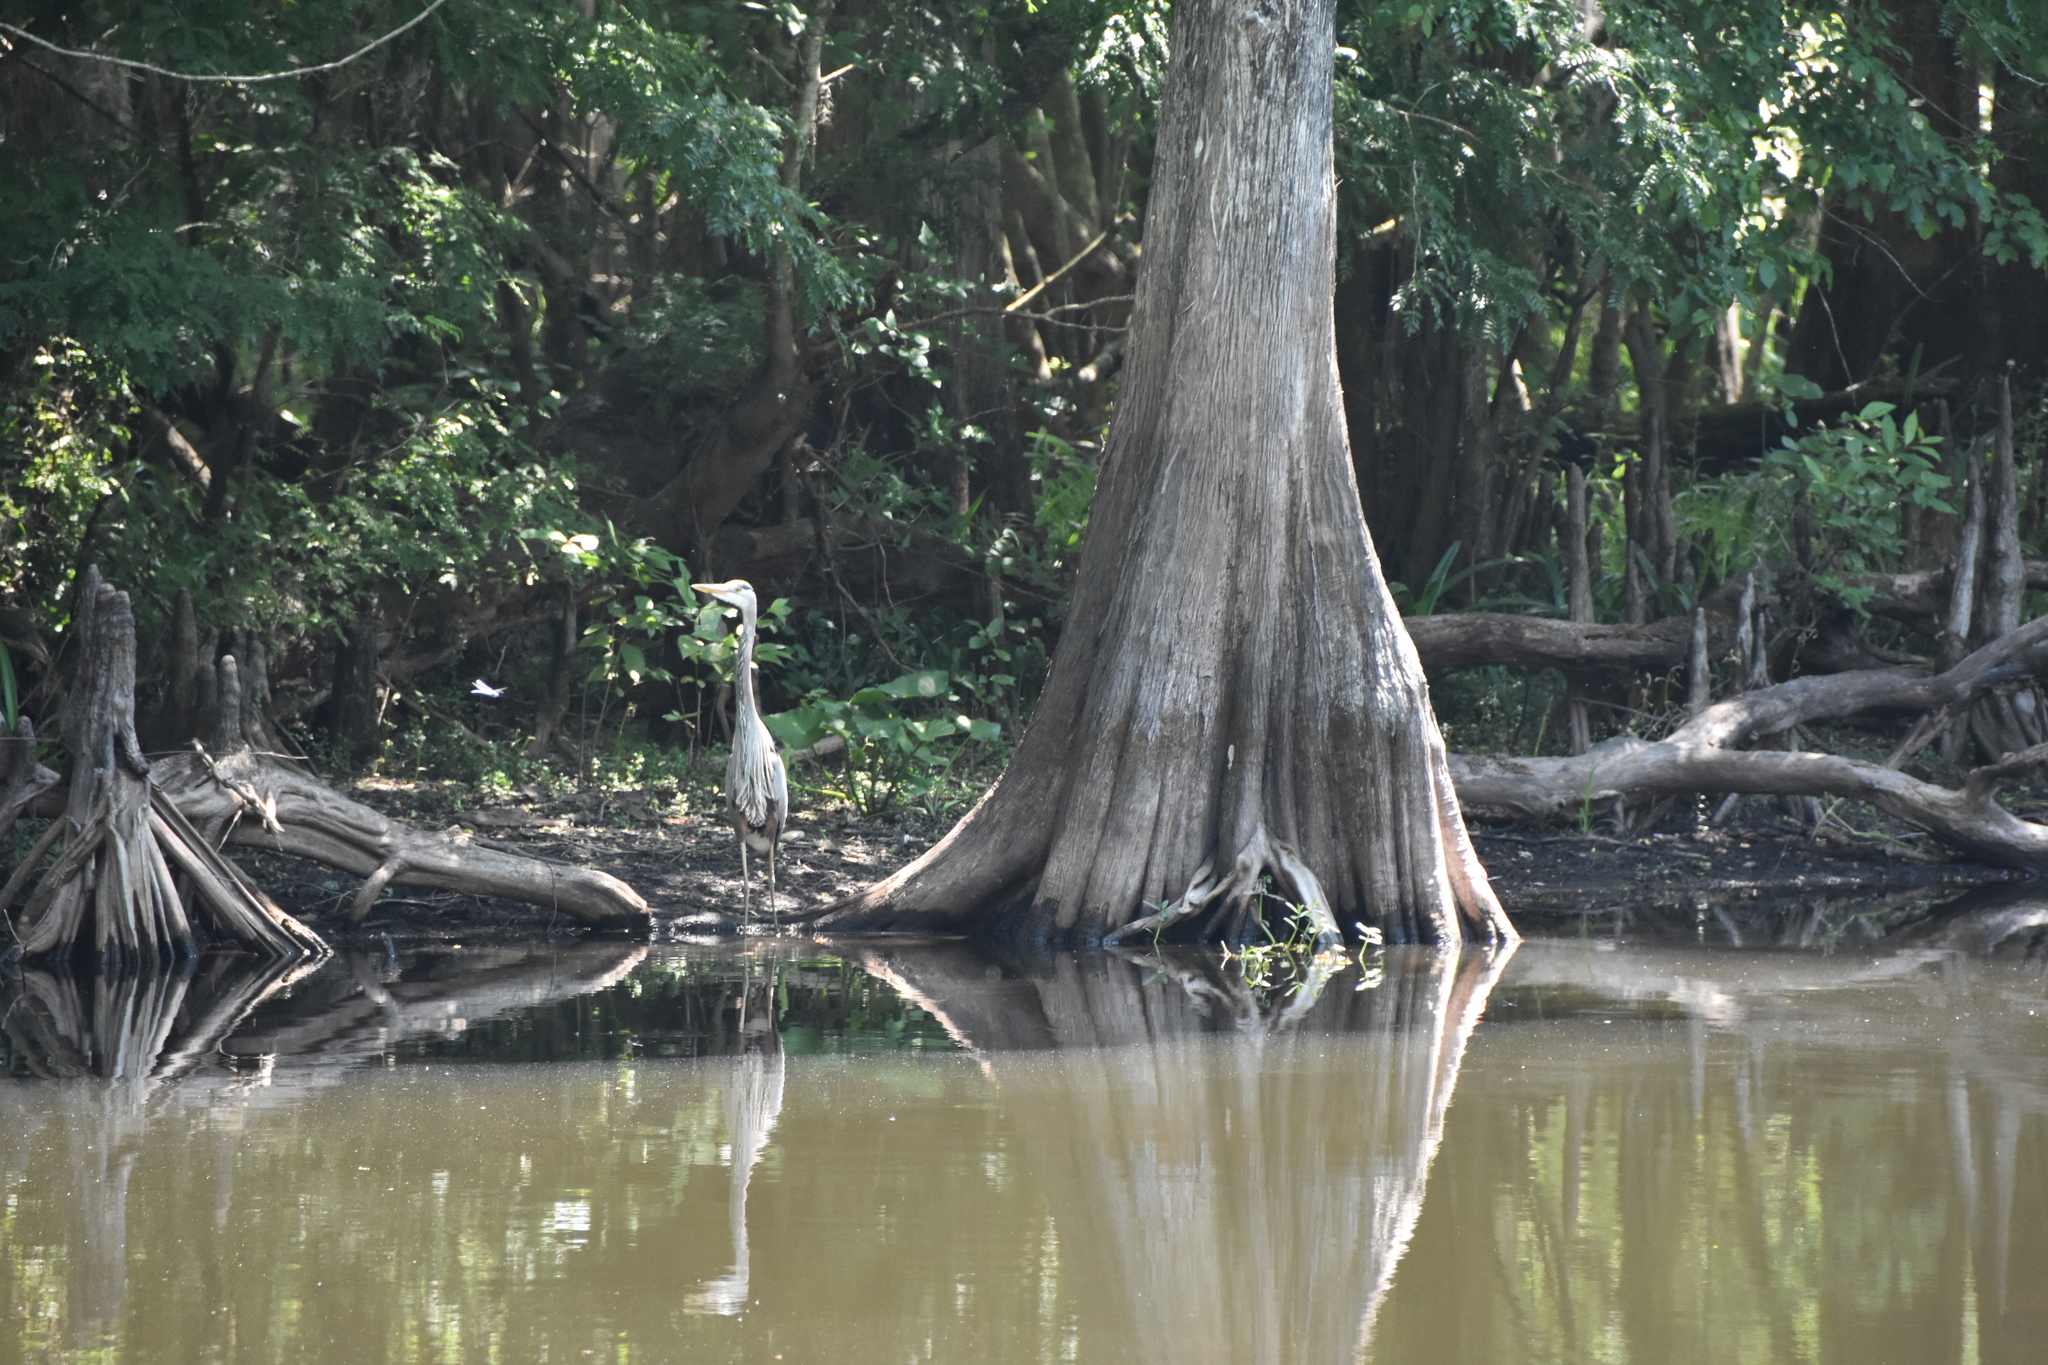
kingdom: Animalia
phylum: Chordata
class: Aves
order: Pelecaniformes
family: Ardeidae
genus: Ardea
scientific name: Ardea herodias
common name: Great blue heron
